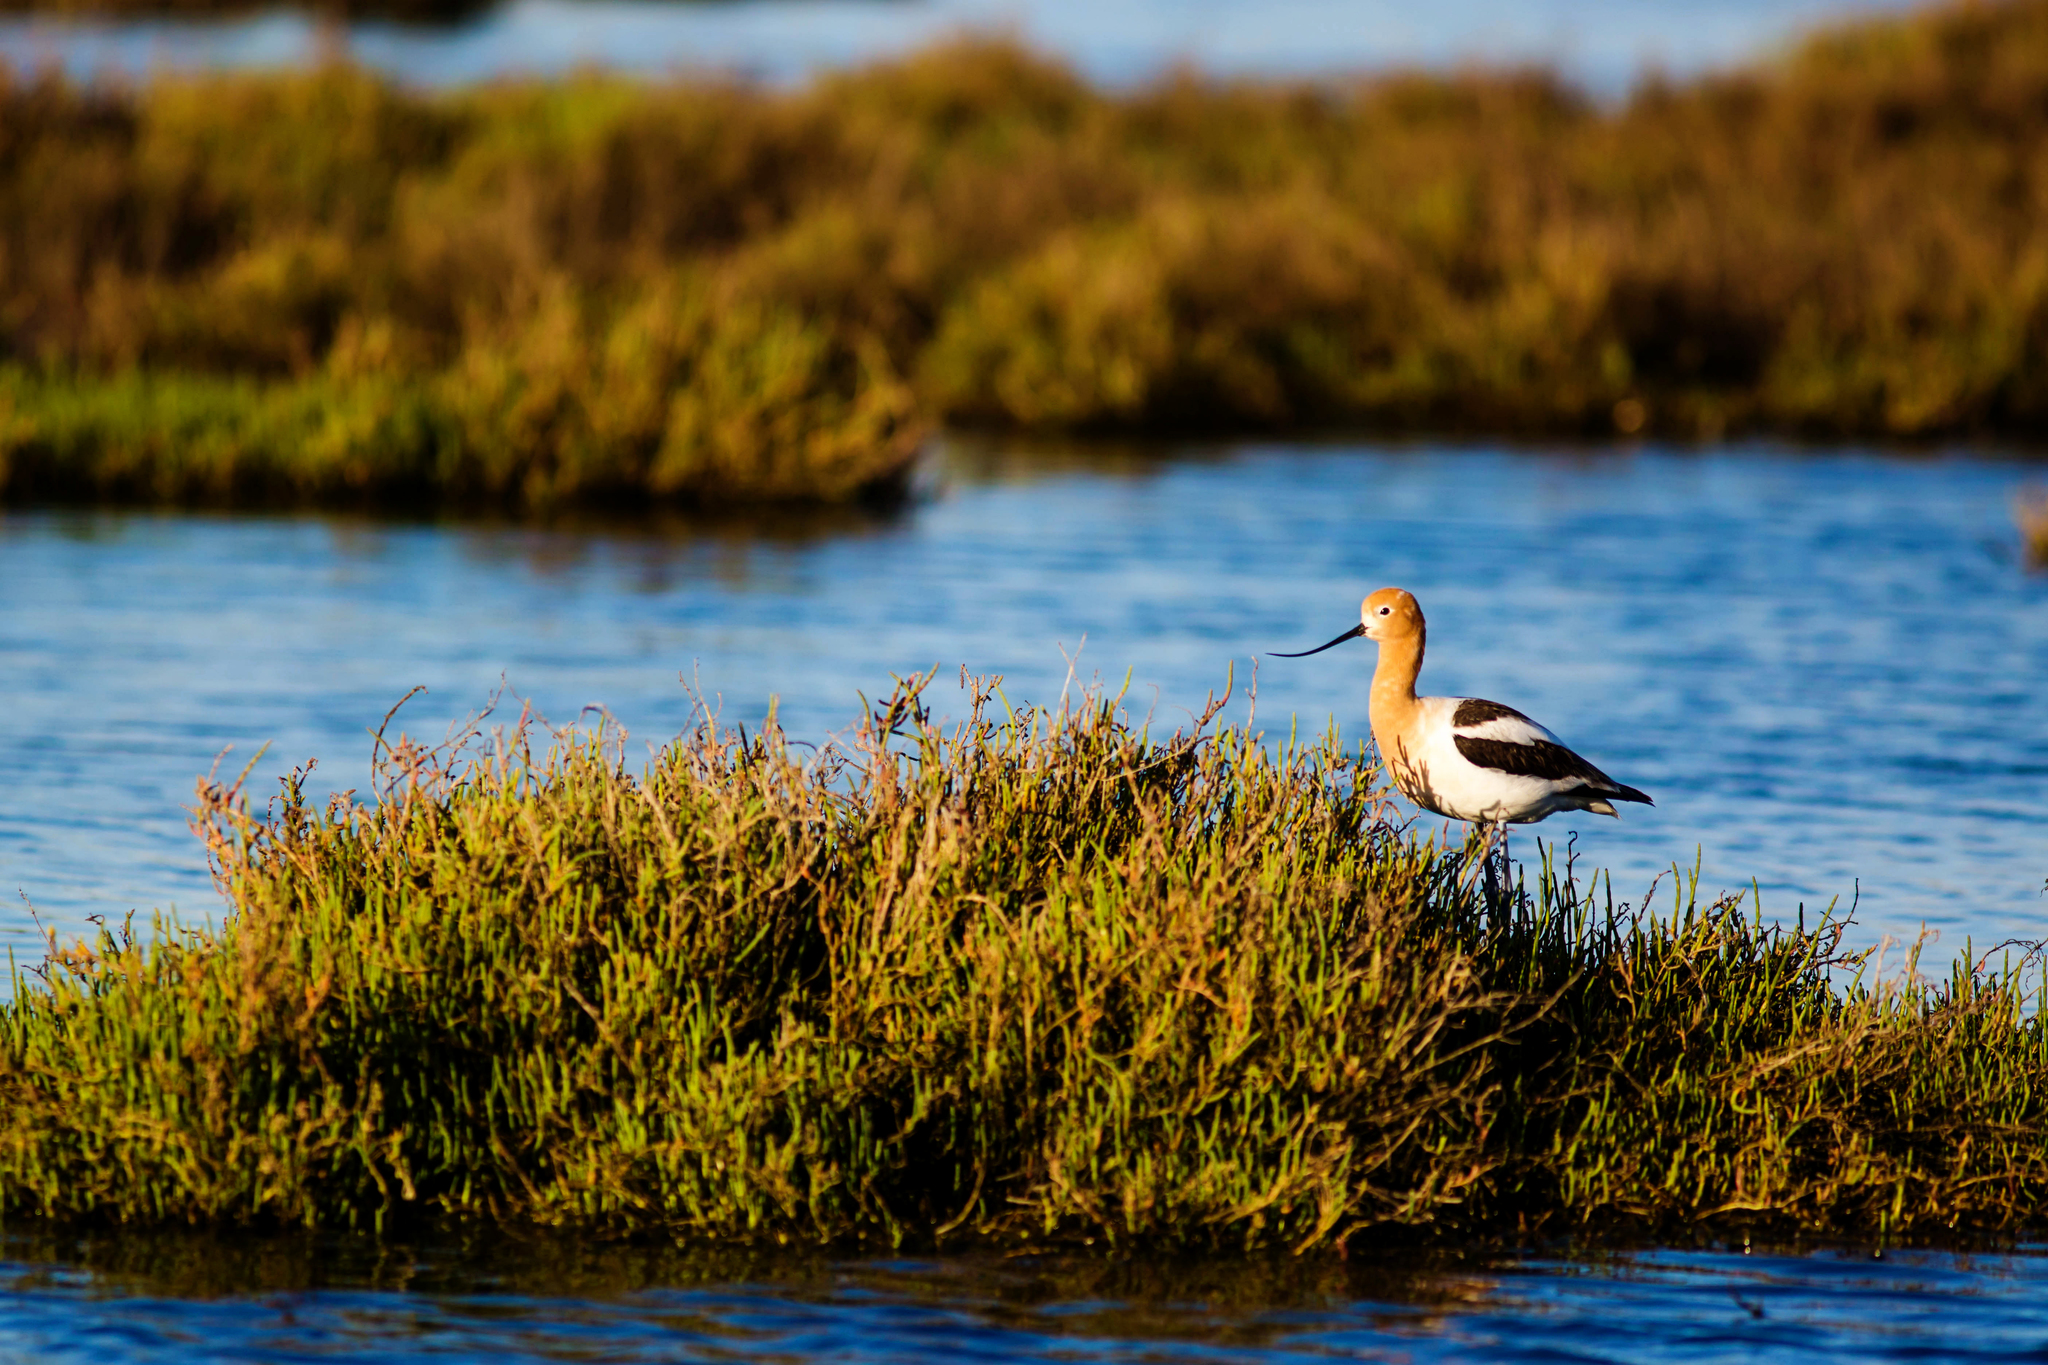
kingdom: Animalia
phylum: Chordata
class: Aves
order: Charadriiformes
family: Recurvirostridae
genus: Recurvirostra
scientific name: Recurvirostra americana
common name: American avocet
